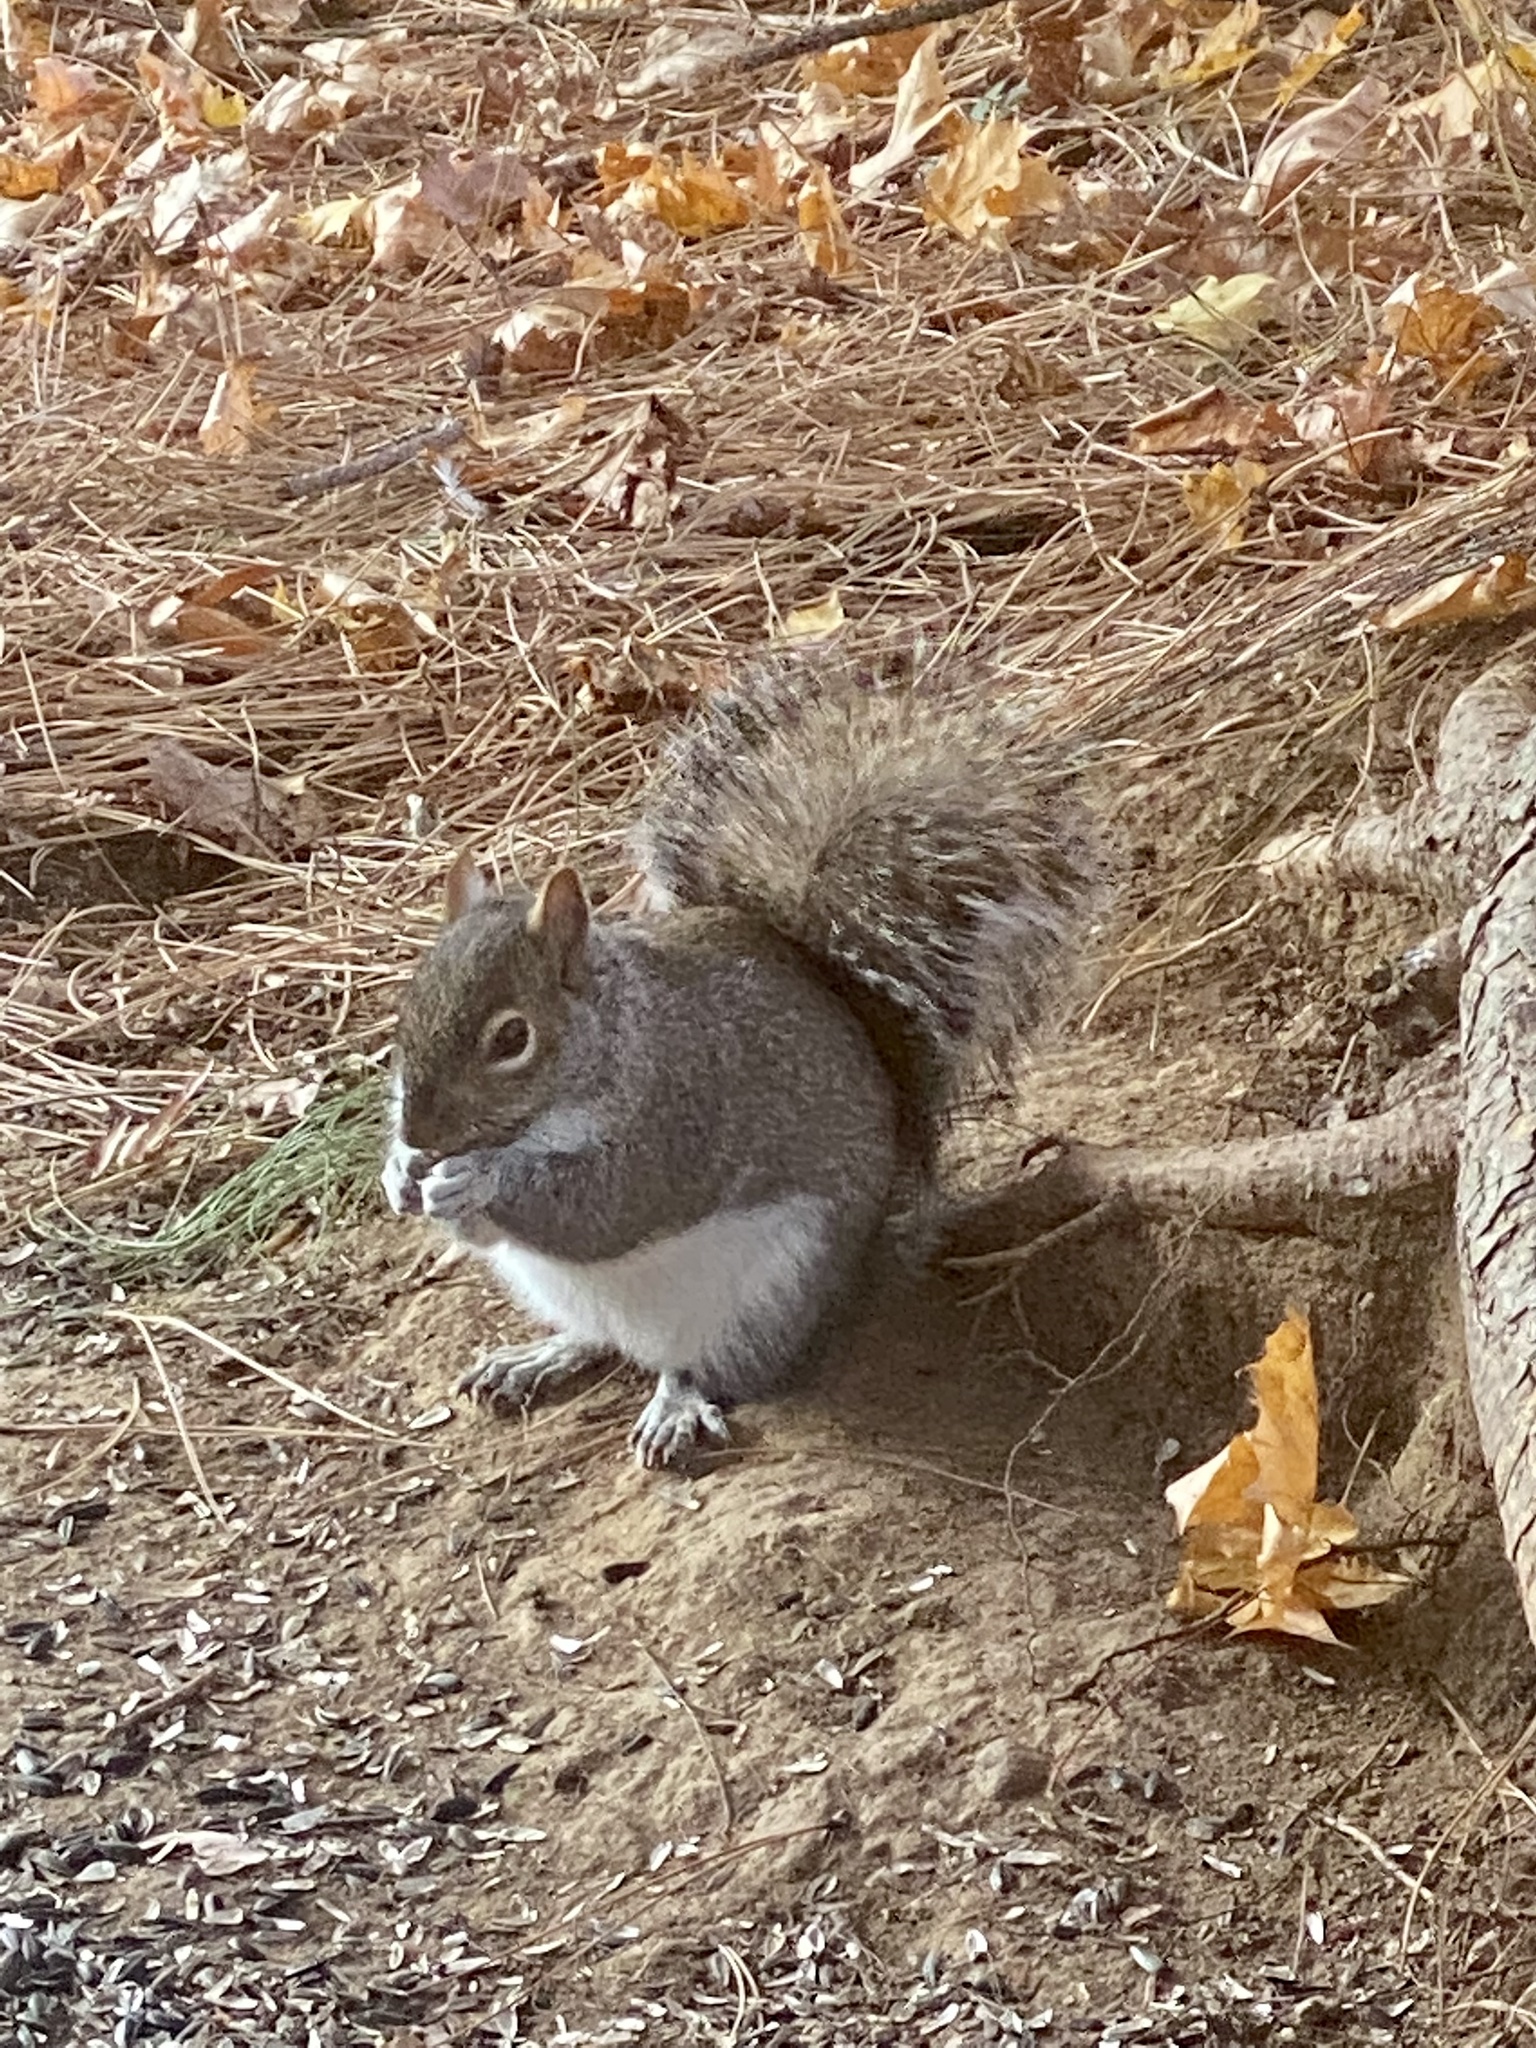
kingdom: Animalia
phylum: Chordata
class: Mammalia
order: Rodentia
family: Sciuridae
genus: Sciurus
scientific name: Sciurus carolinensis
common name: Eastern gray squirrel
